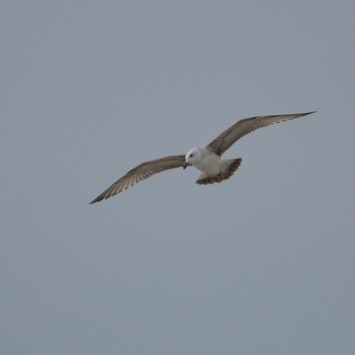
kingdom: Animalia
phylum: Chordata
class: Aves
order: Charadriiformes
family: Laridae
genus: Larus
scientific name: Larus cachinnans
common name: Caspian gull
